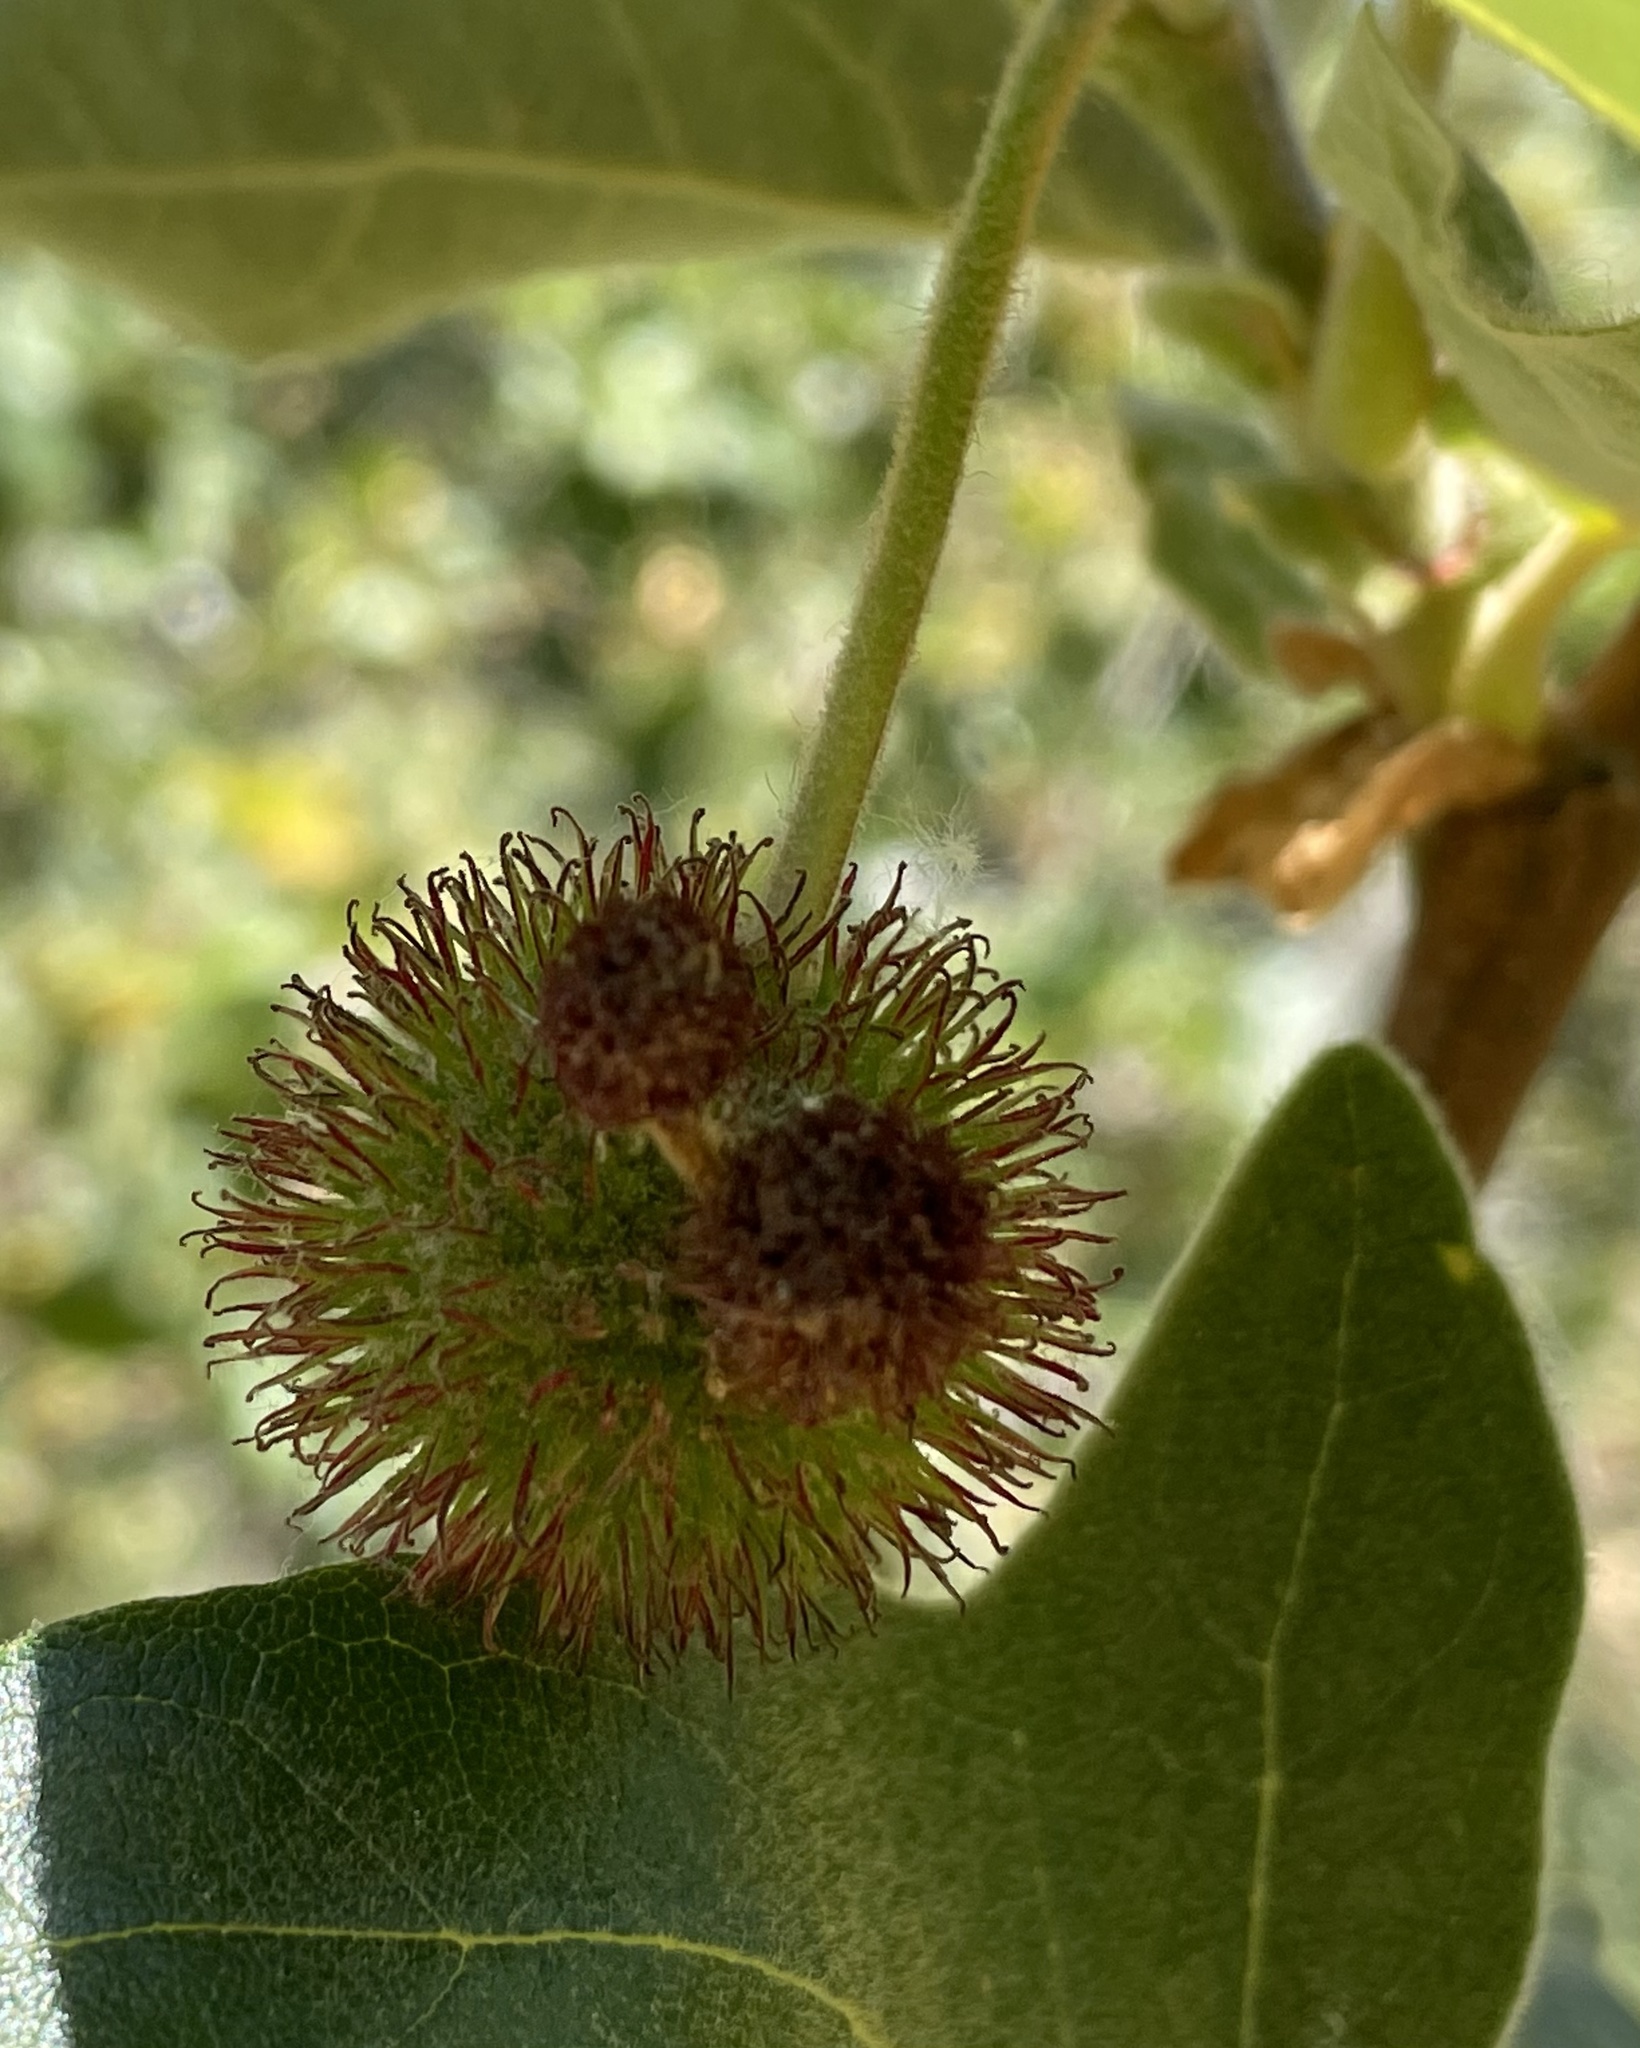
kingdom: Plantae
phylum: Tracheophyta
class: Magnoliopsida
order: Proteales
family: Platanaceae
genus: Platanus
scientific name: Platanus racemosa
